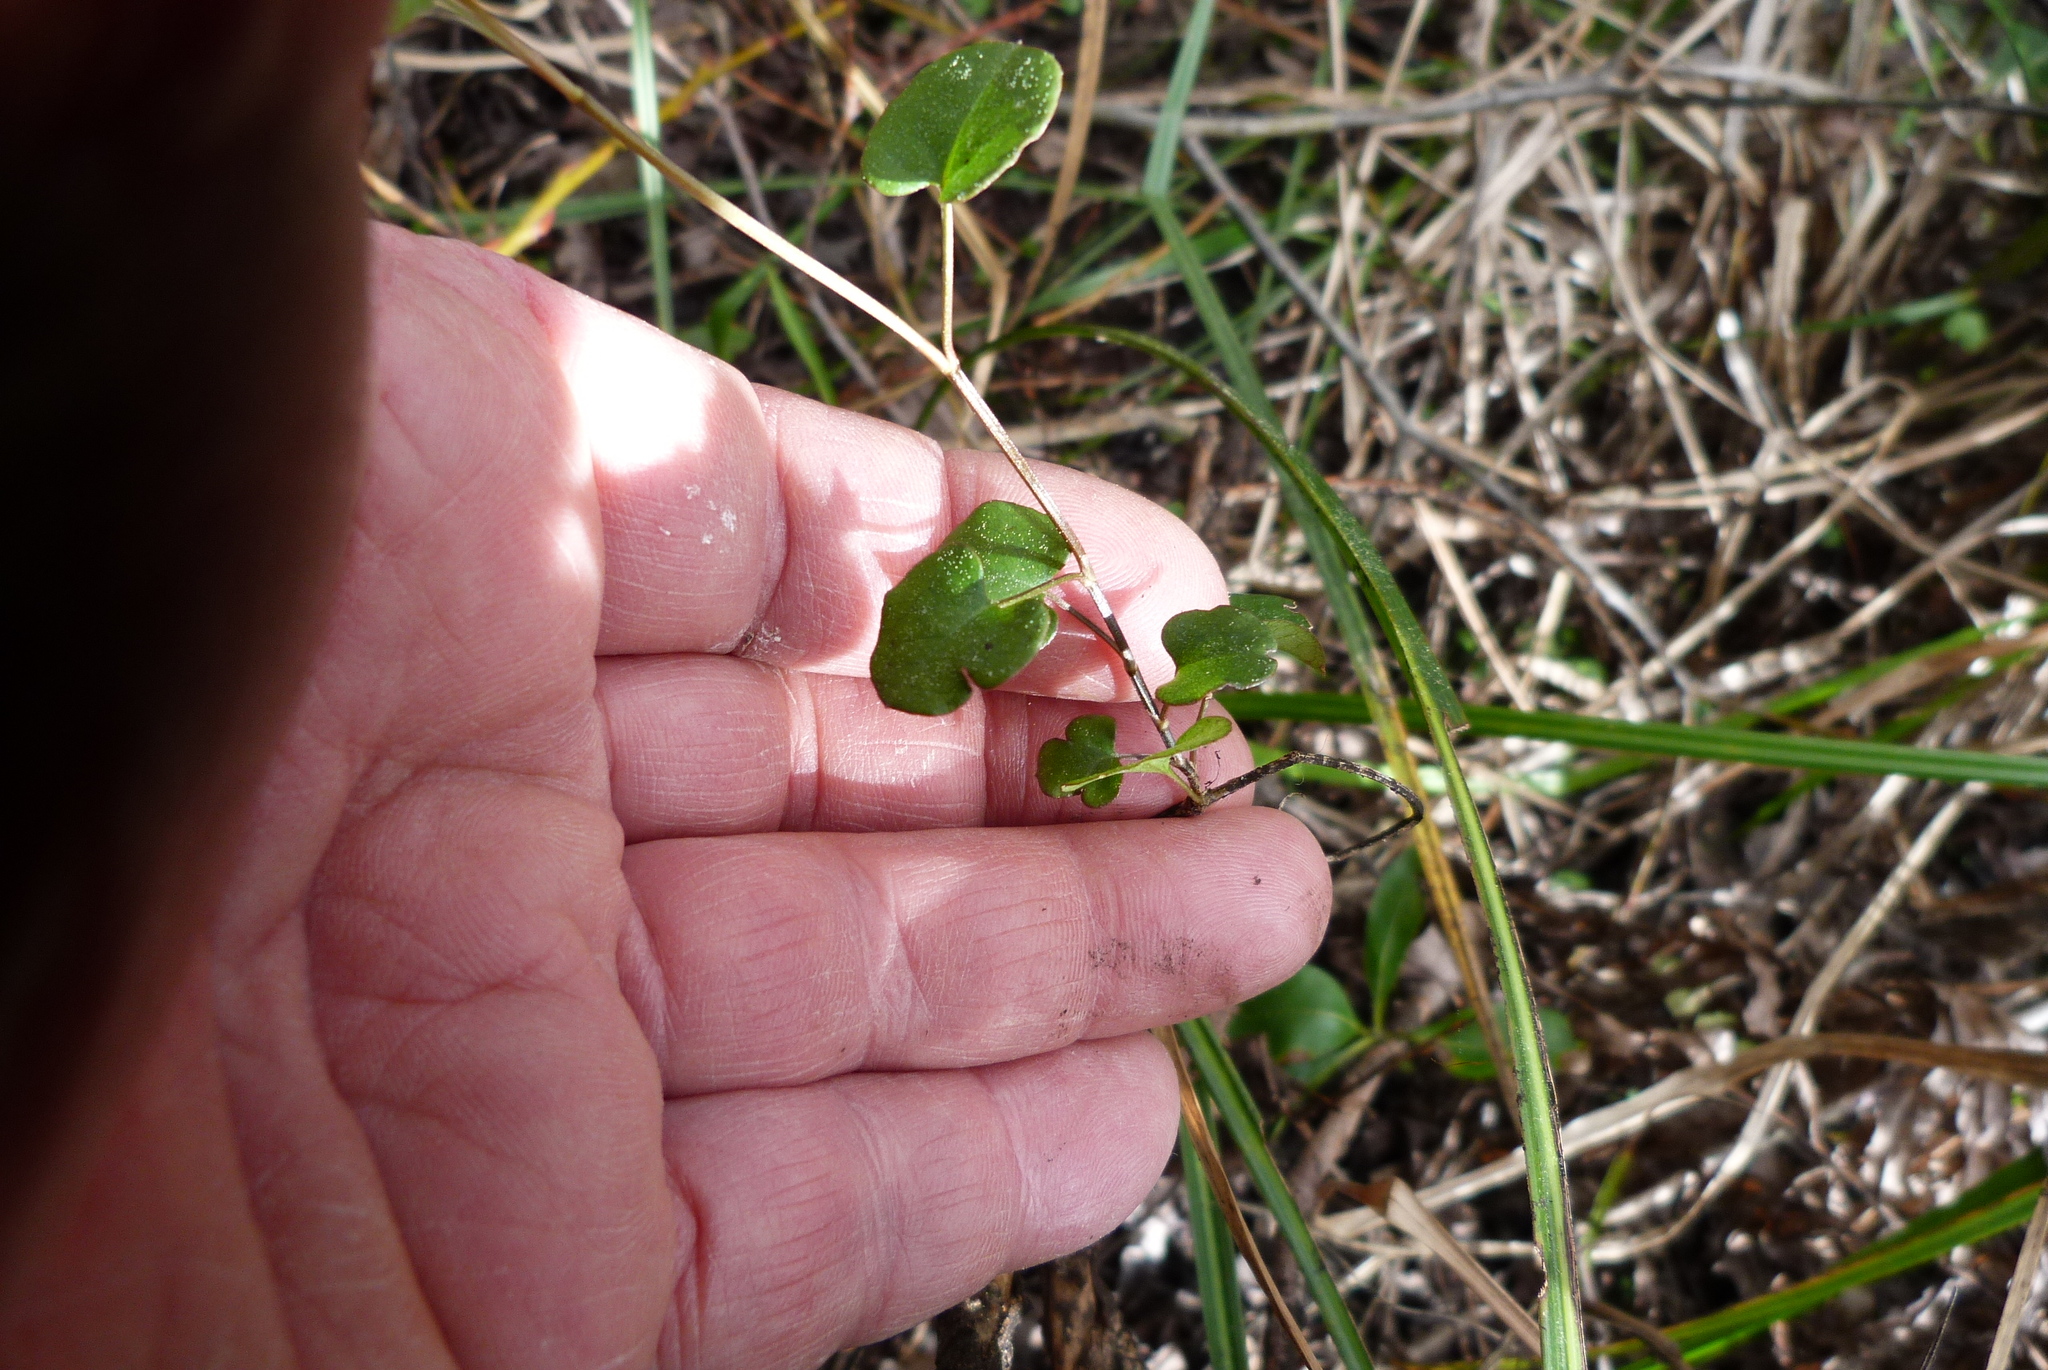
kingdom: Plantae
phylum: Tracheophyta
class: Magnoliopsida
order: Caryophyllales
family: Polygonaceae
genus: Muehlenbeckia
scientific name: Muehlenbeckia
